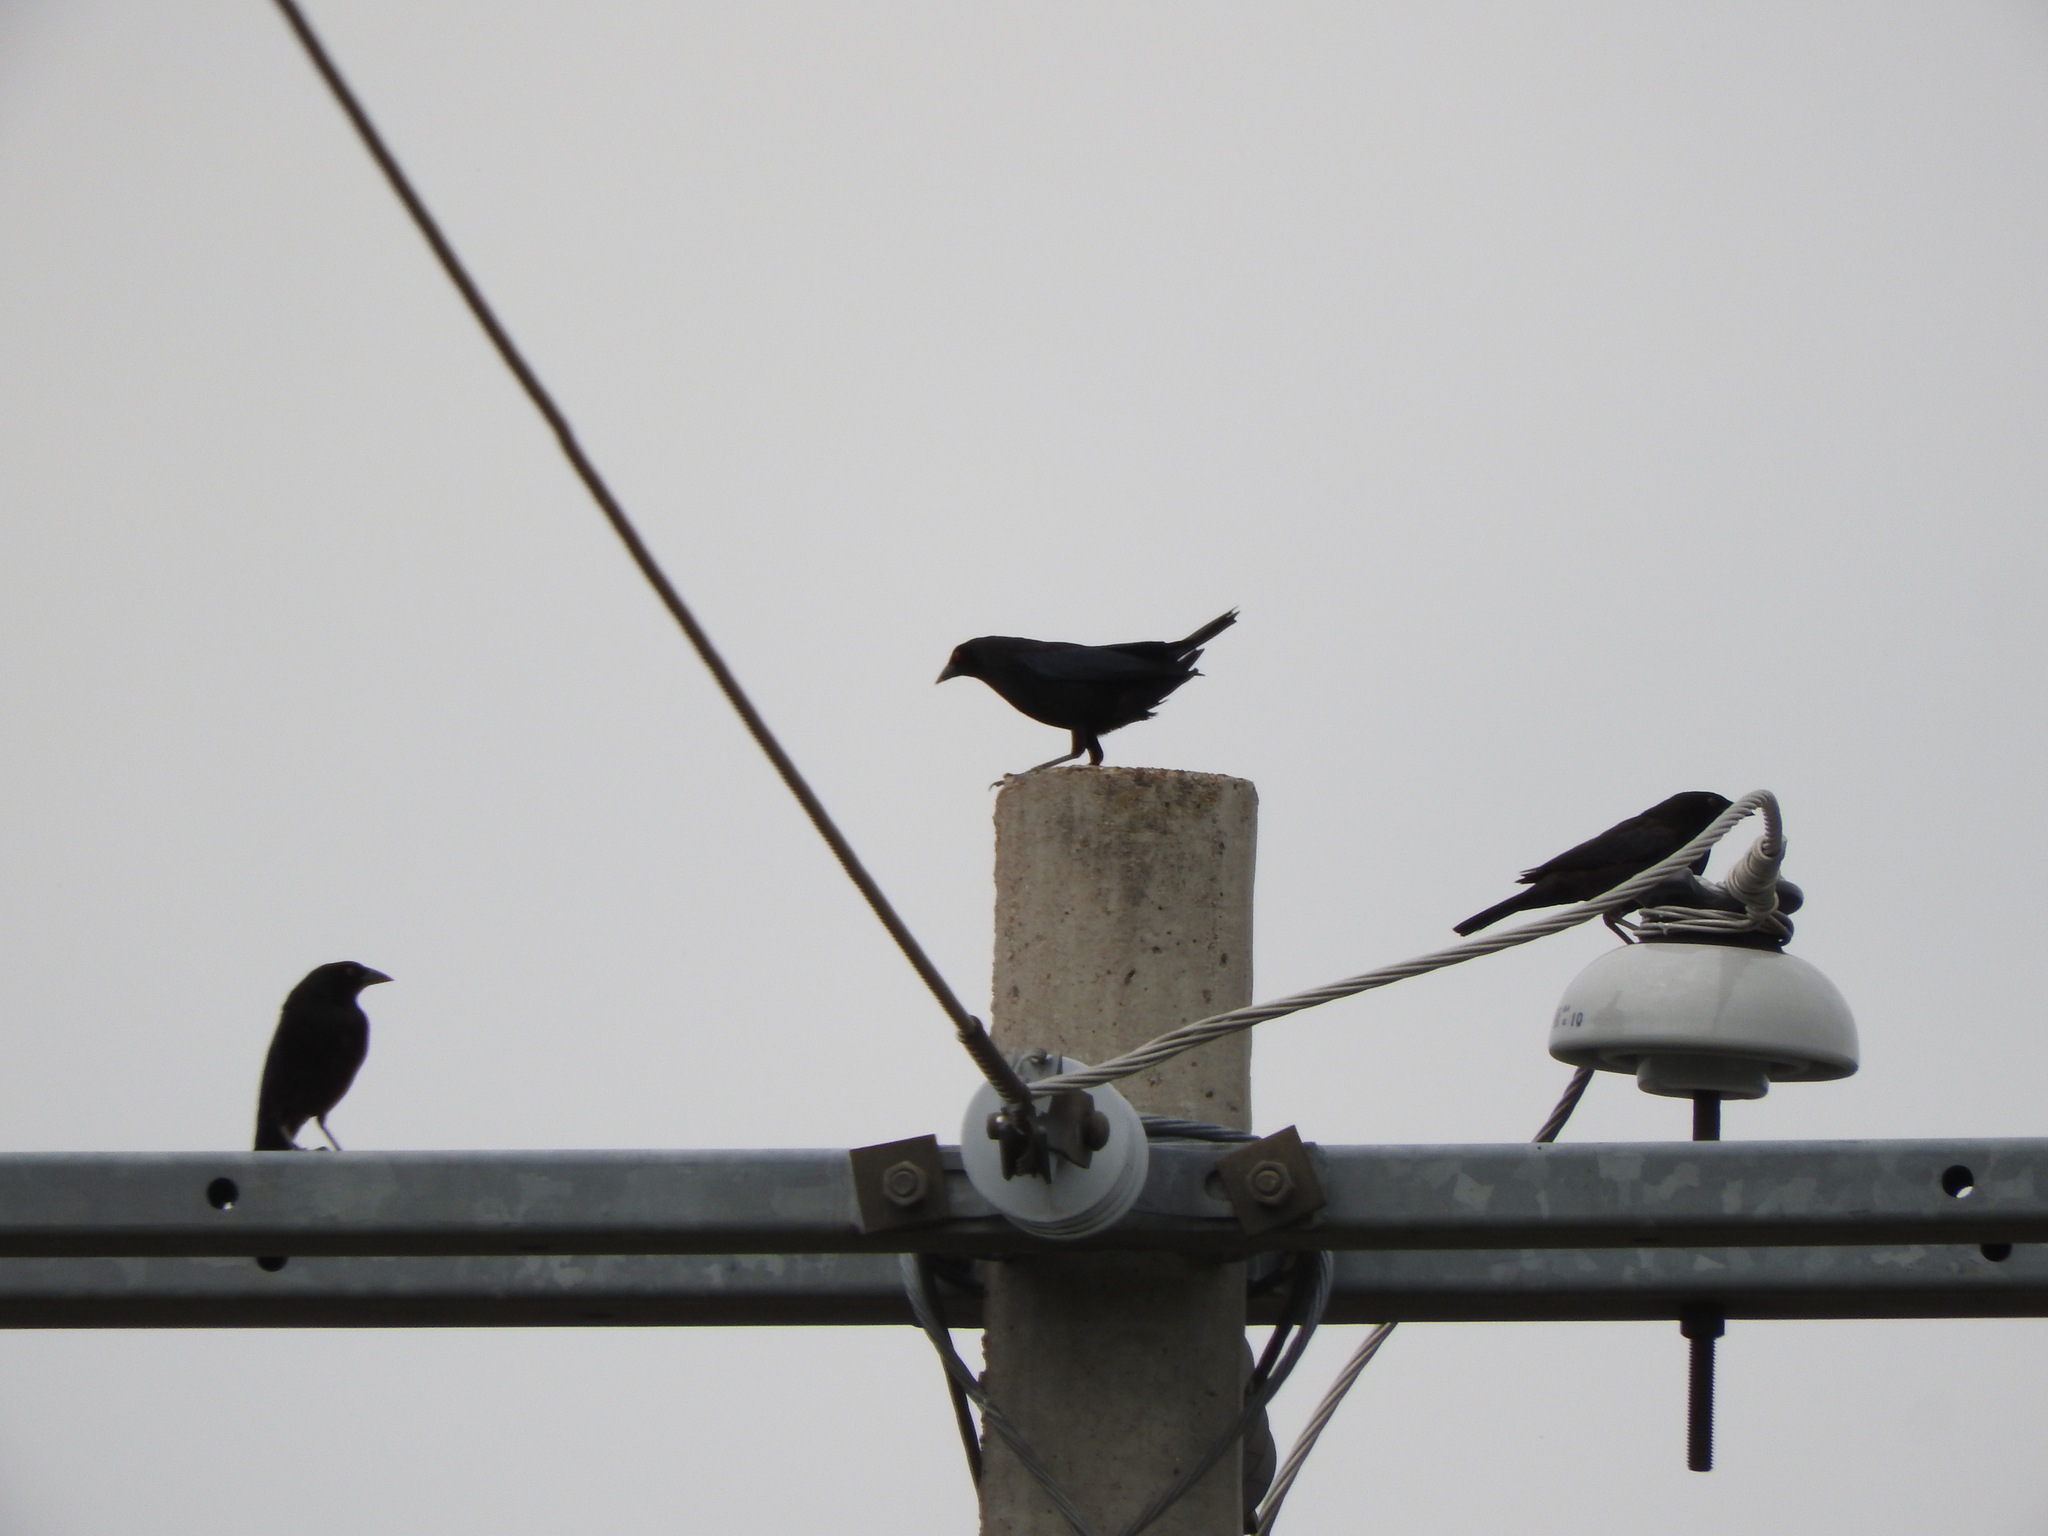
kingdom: Animalia
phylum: Chordata
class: Aves
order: Passeriformes
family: Icteridae
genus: Molothrus
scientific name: Molothrus aeneus
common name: Bronzed cowbird
